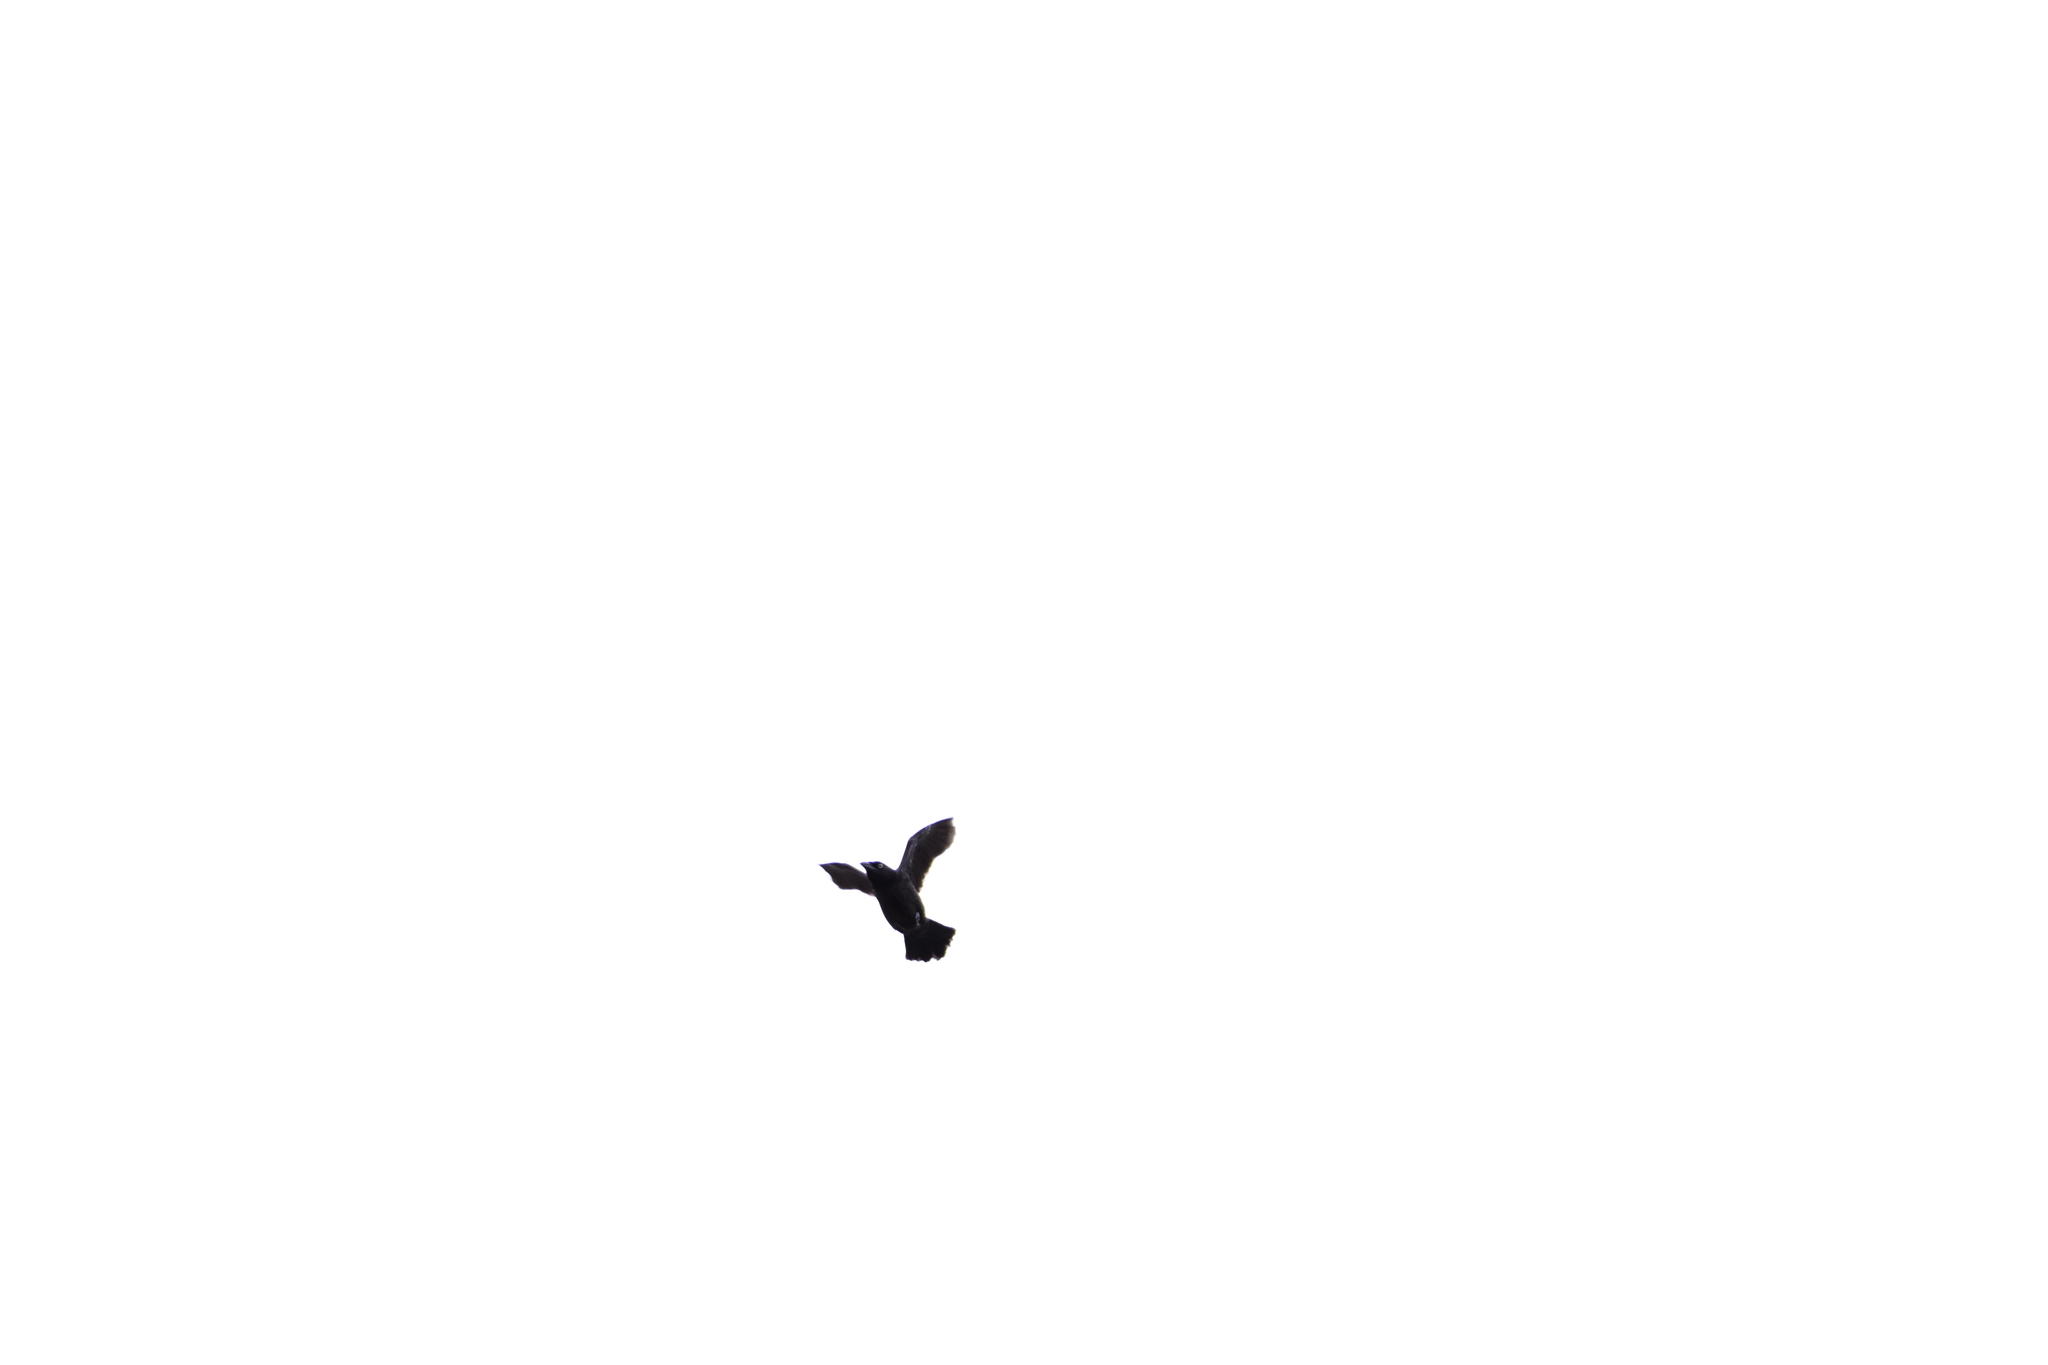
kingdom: Animalia
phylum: Chordata
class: Aves
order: Passeriformes
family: Icteridae
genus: Quiscalus
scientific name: Quiscalus quiscula
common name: Common grackle
